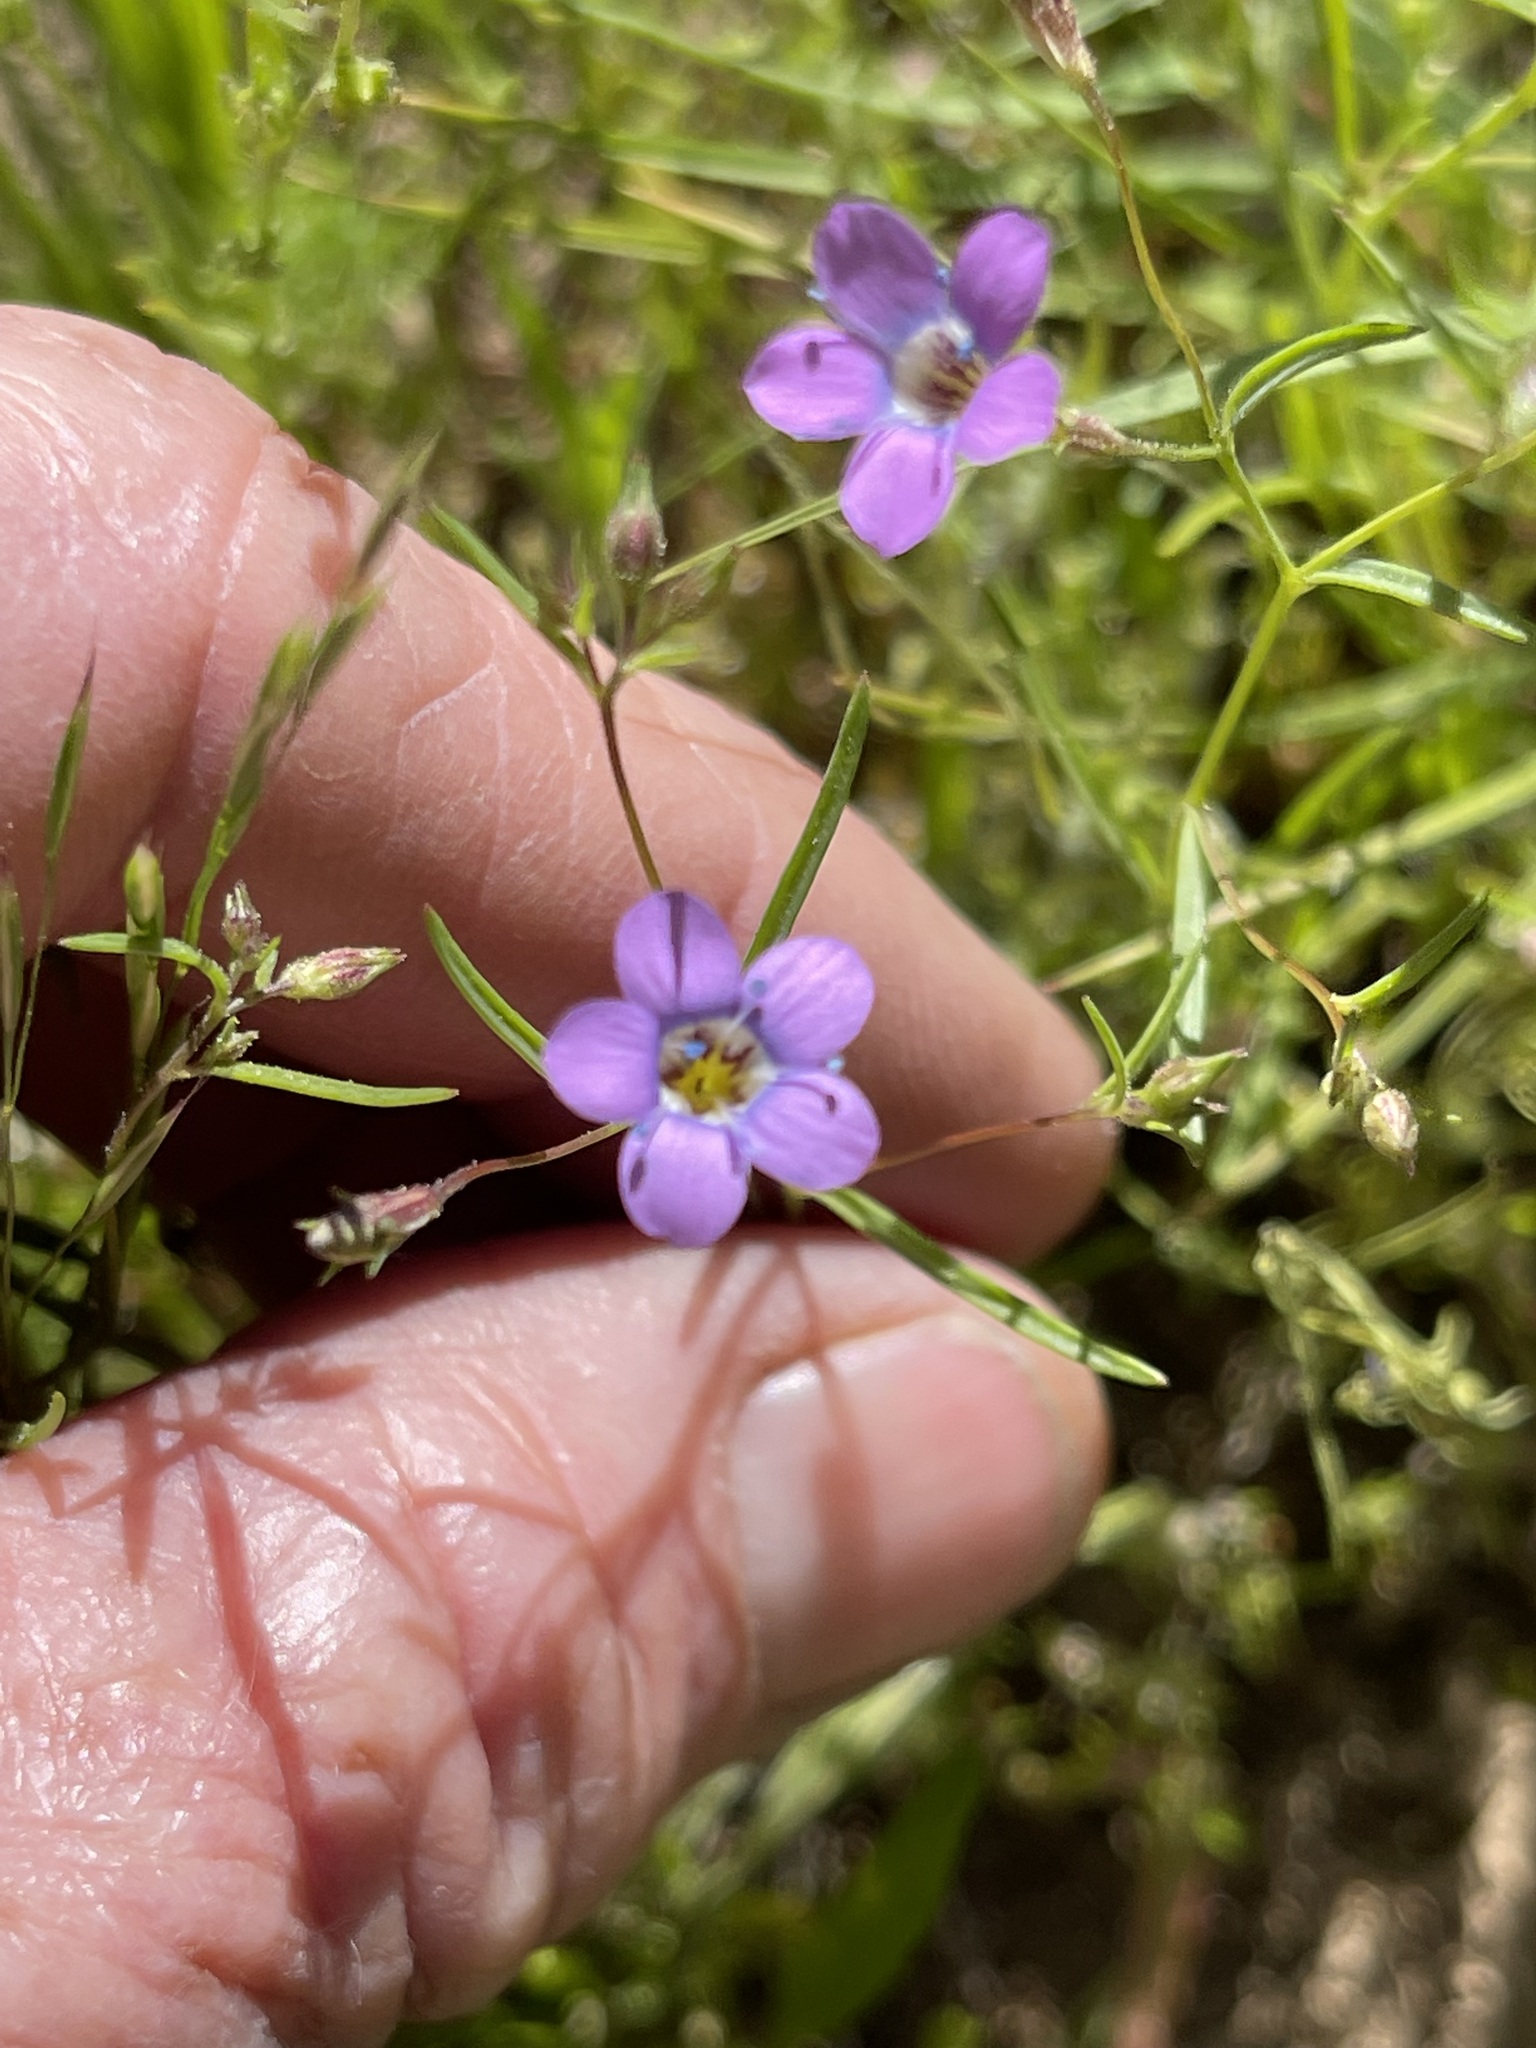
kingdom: Plantae
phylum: Tracheophyta
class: Magnoliopsida
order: Ericales
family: Polemoniaceae
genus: Navarretia
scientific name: Navarretia leptalea
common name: Bridges' pincushionplant
